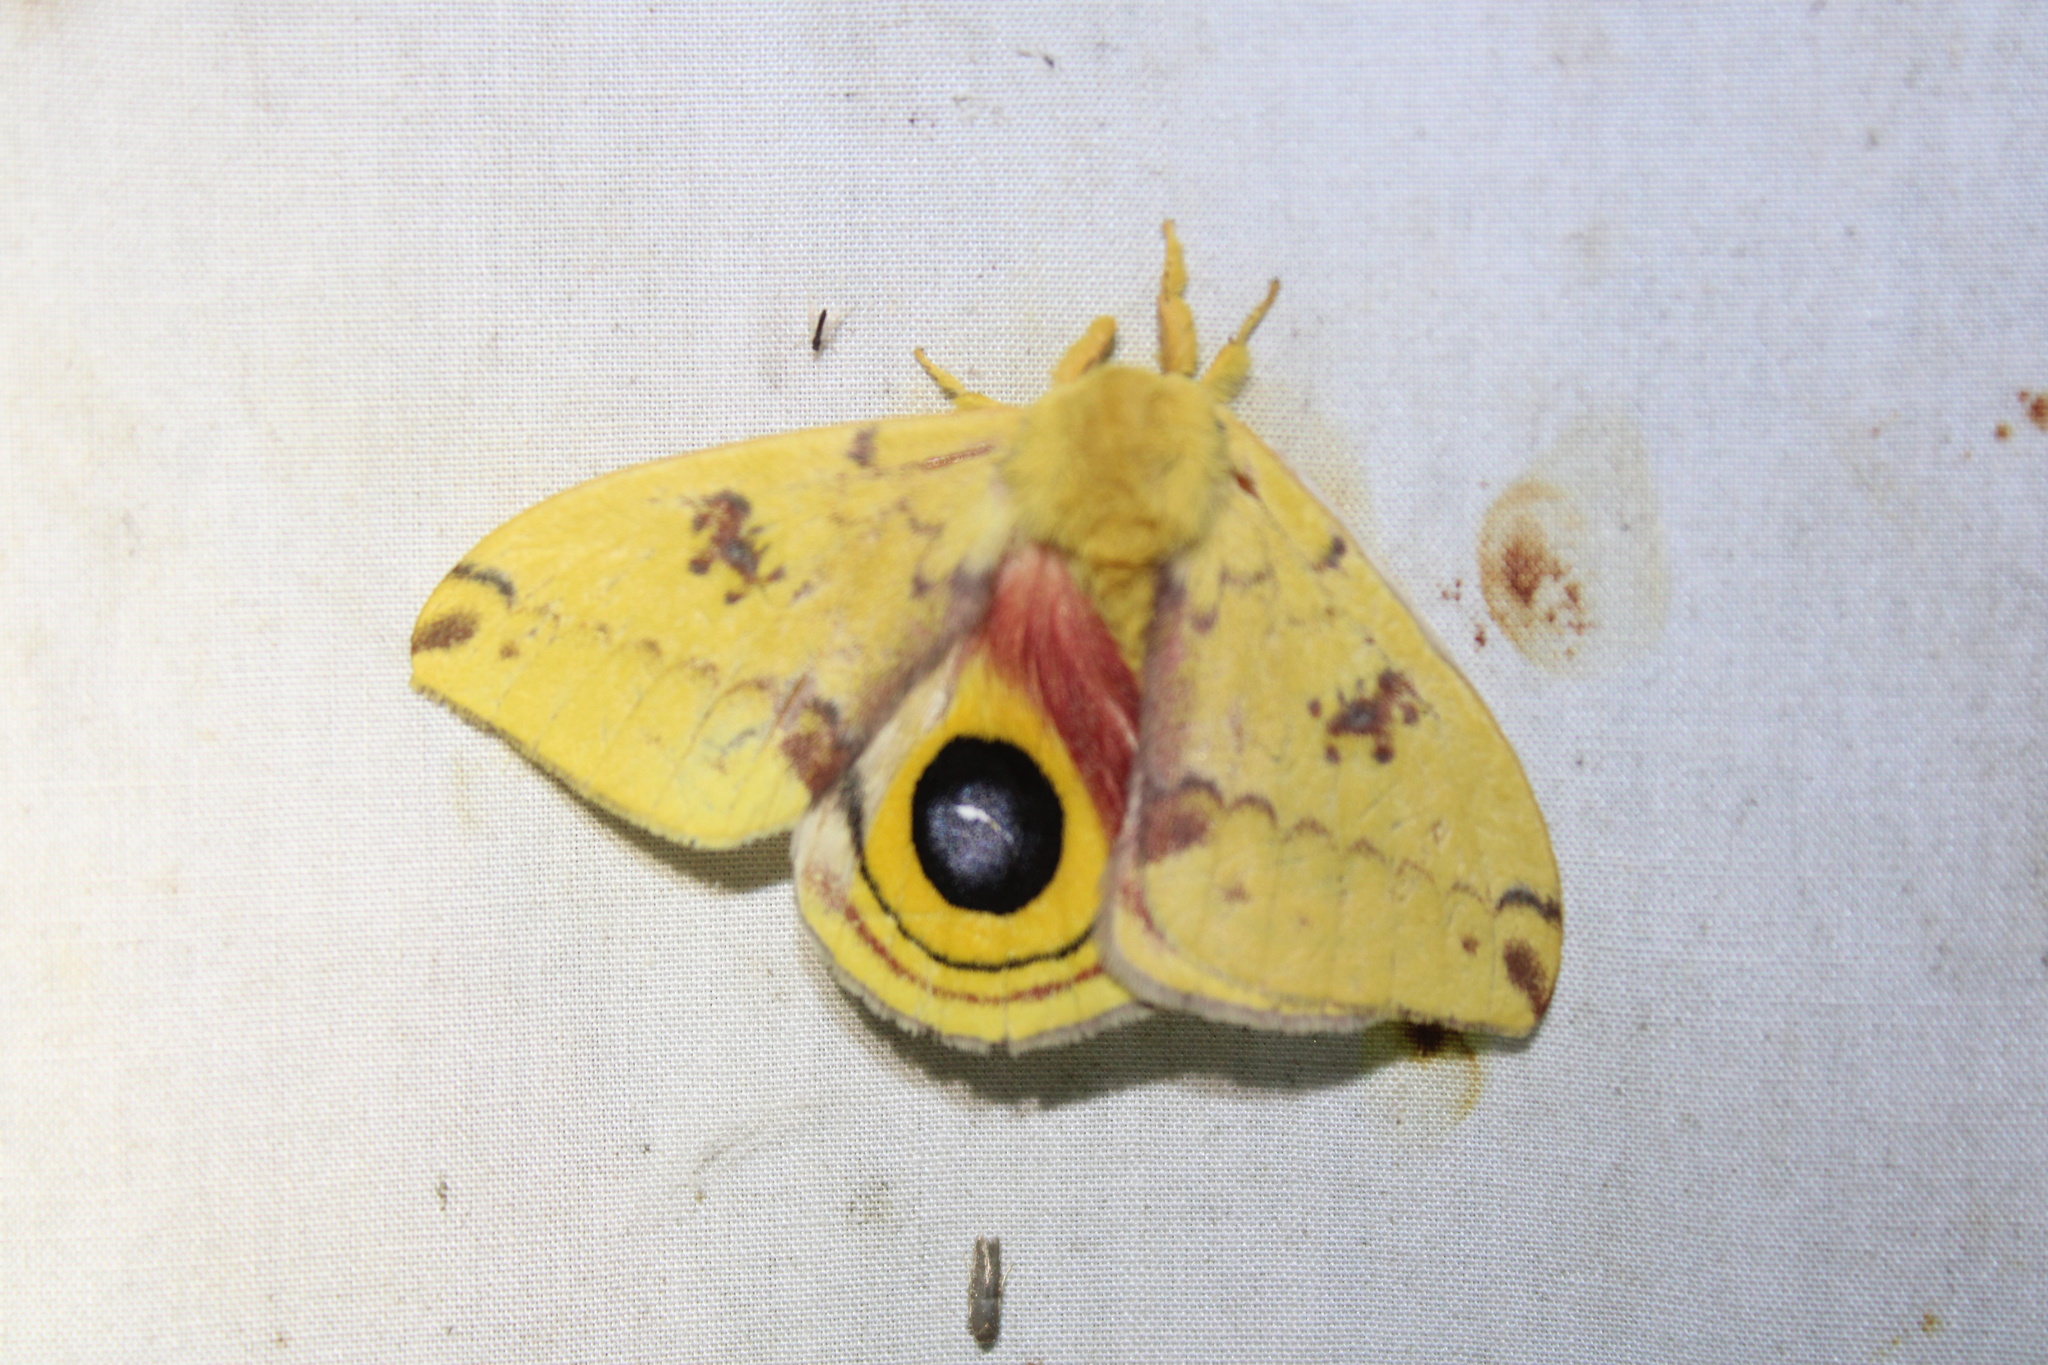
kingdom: Animalia
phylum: Arthropoda
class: Insecta
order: Lepidoptera
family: Saturniidae
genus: Automeris
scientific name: Automeris io
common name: Io moth
